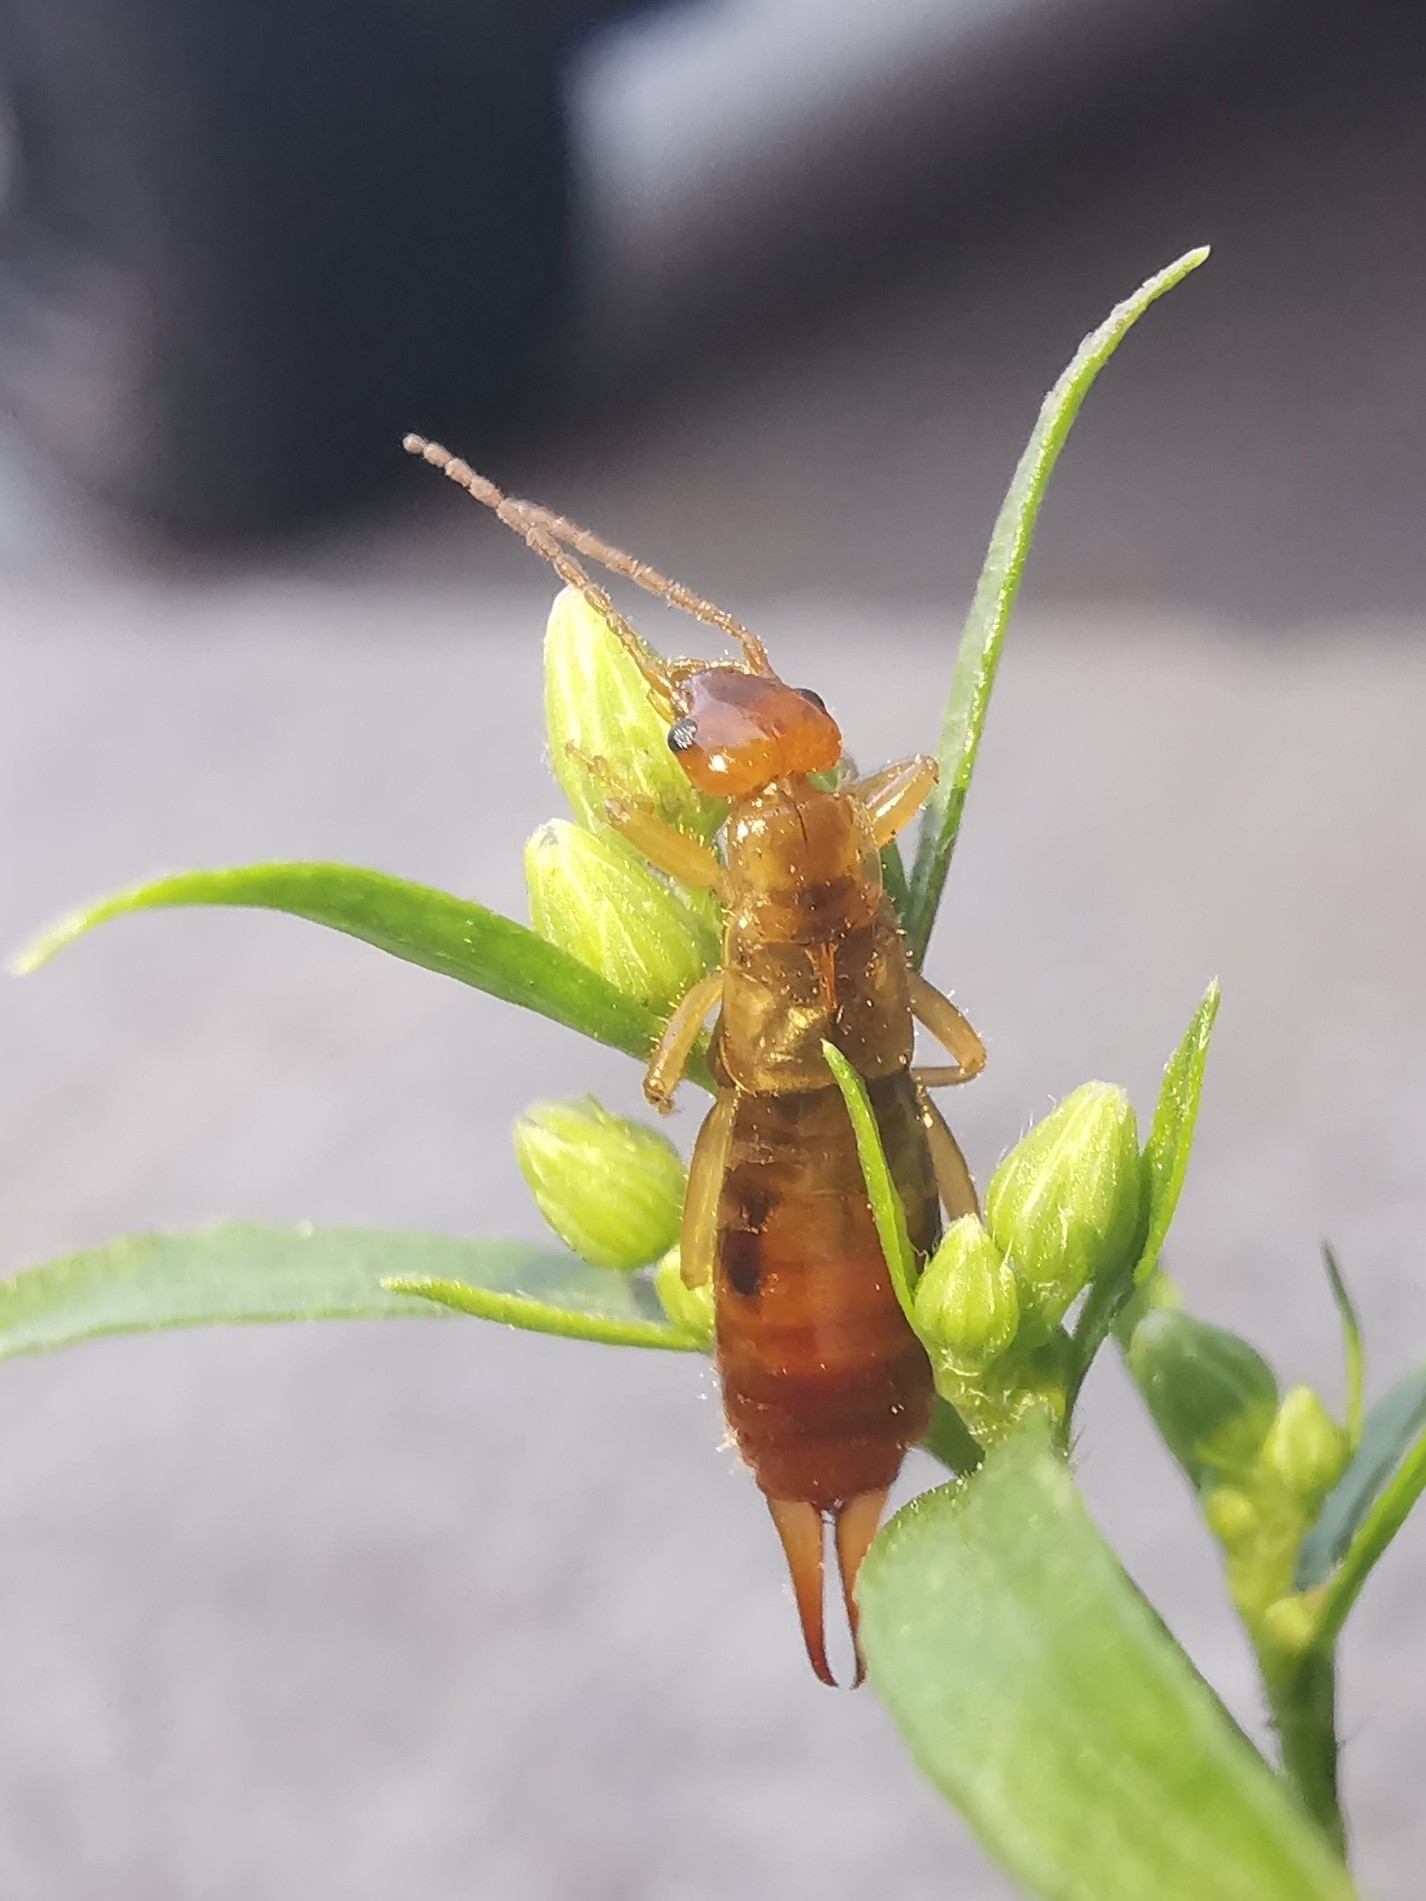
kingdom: Animalia
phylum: Arthropoda
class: Insecta
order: Dermaptera
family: Forficulidae
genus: Apterygida
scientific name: Apterygida albipennis
